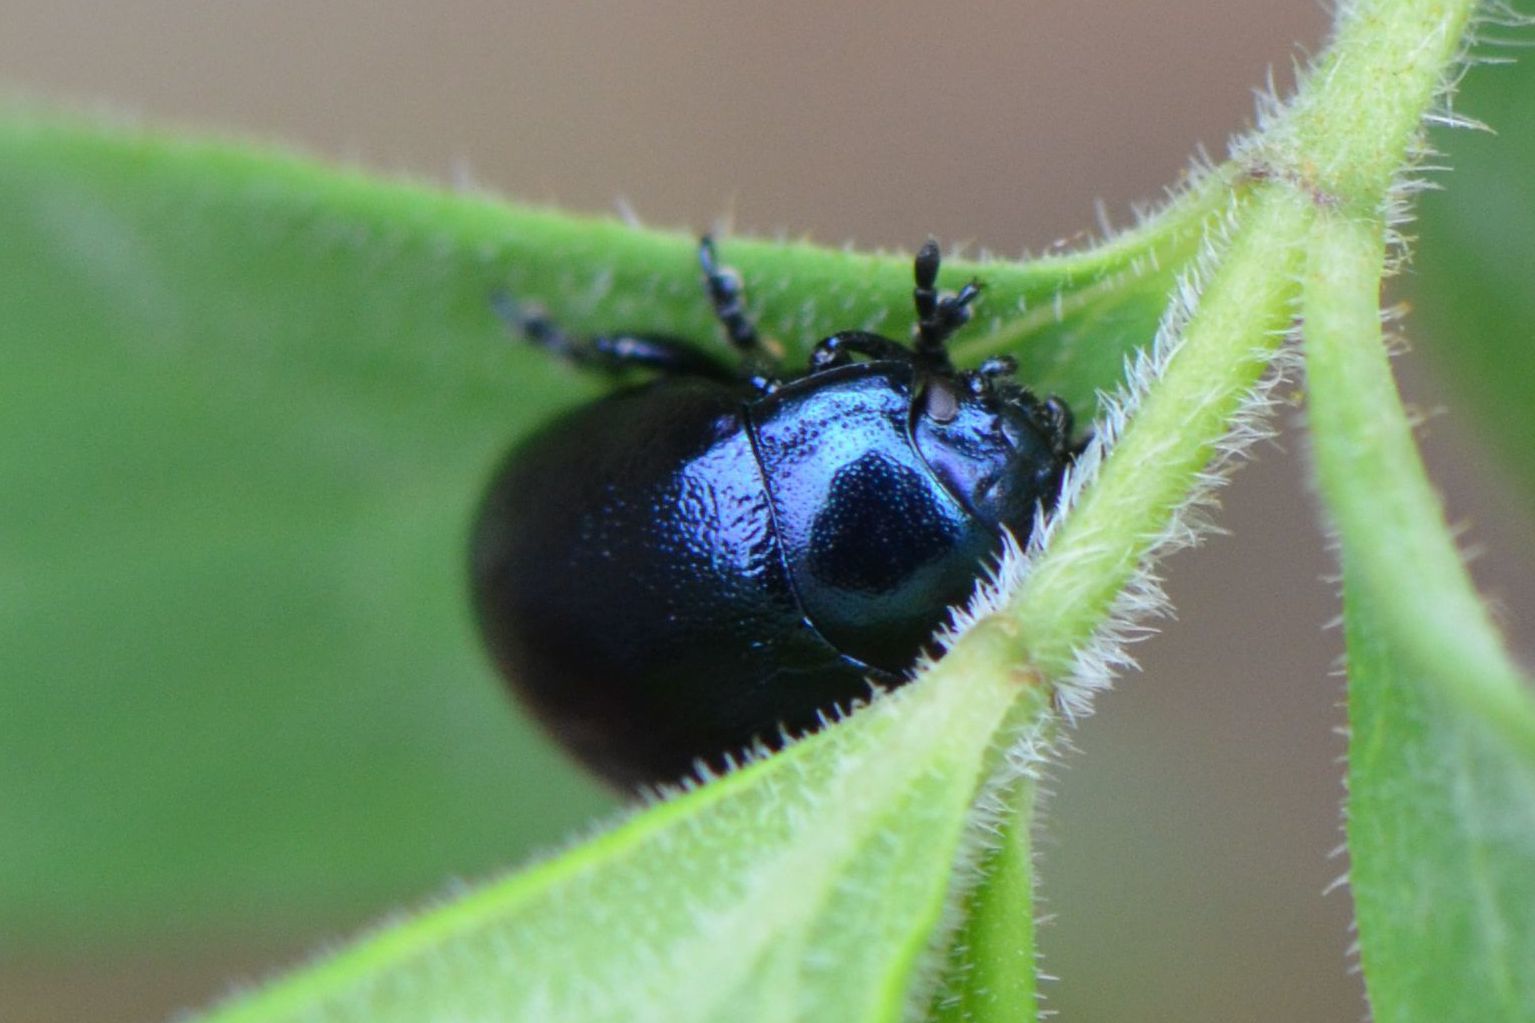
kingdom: Animalia
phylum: Arthropoda
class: Insecta
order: Coleoptera
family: Chrysomelidae
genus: Chrysolina
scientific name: Chrysolina varians
